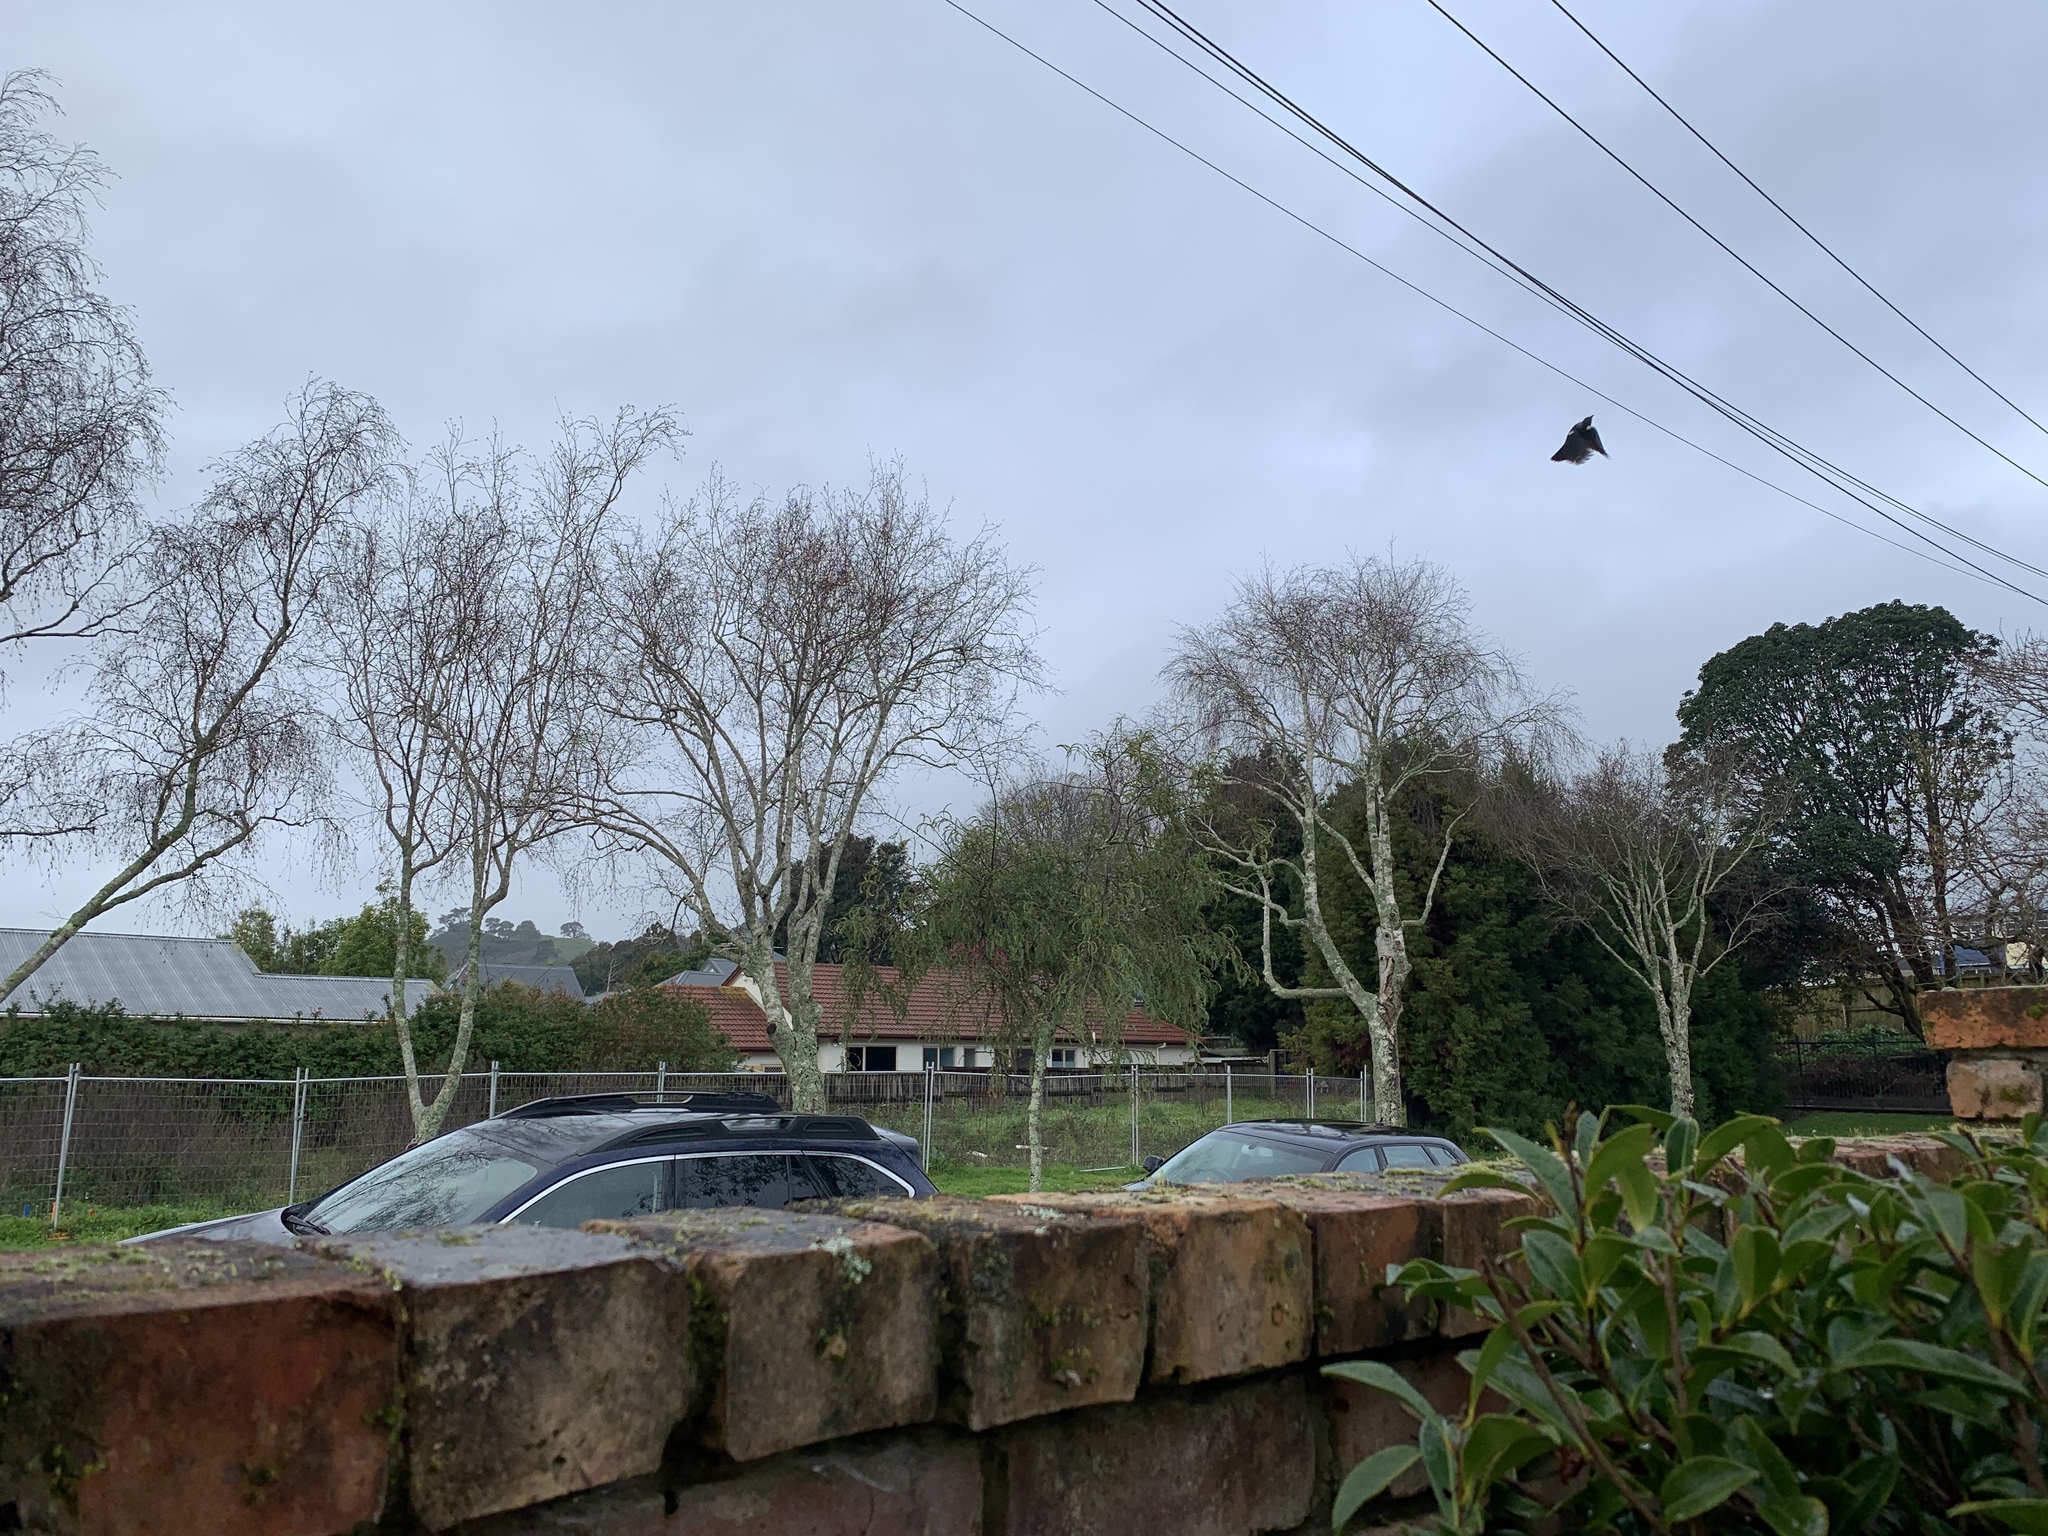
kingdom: Animalia
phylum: Chordata
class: Aves
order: Passeriformes
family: Meliphagidae
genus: Prosthemadera
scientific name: Prosthemadera novaeseelandiae
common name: Tui
